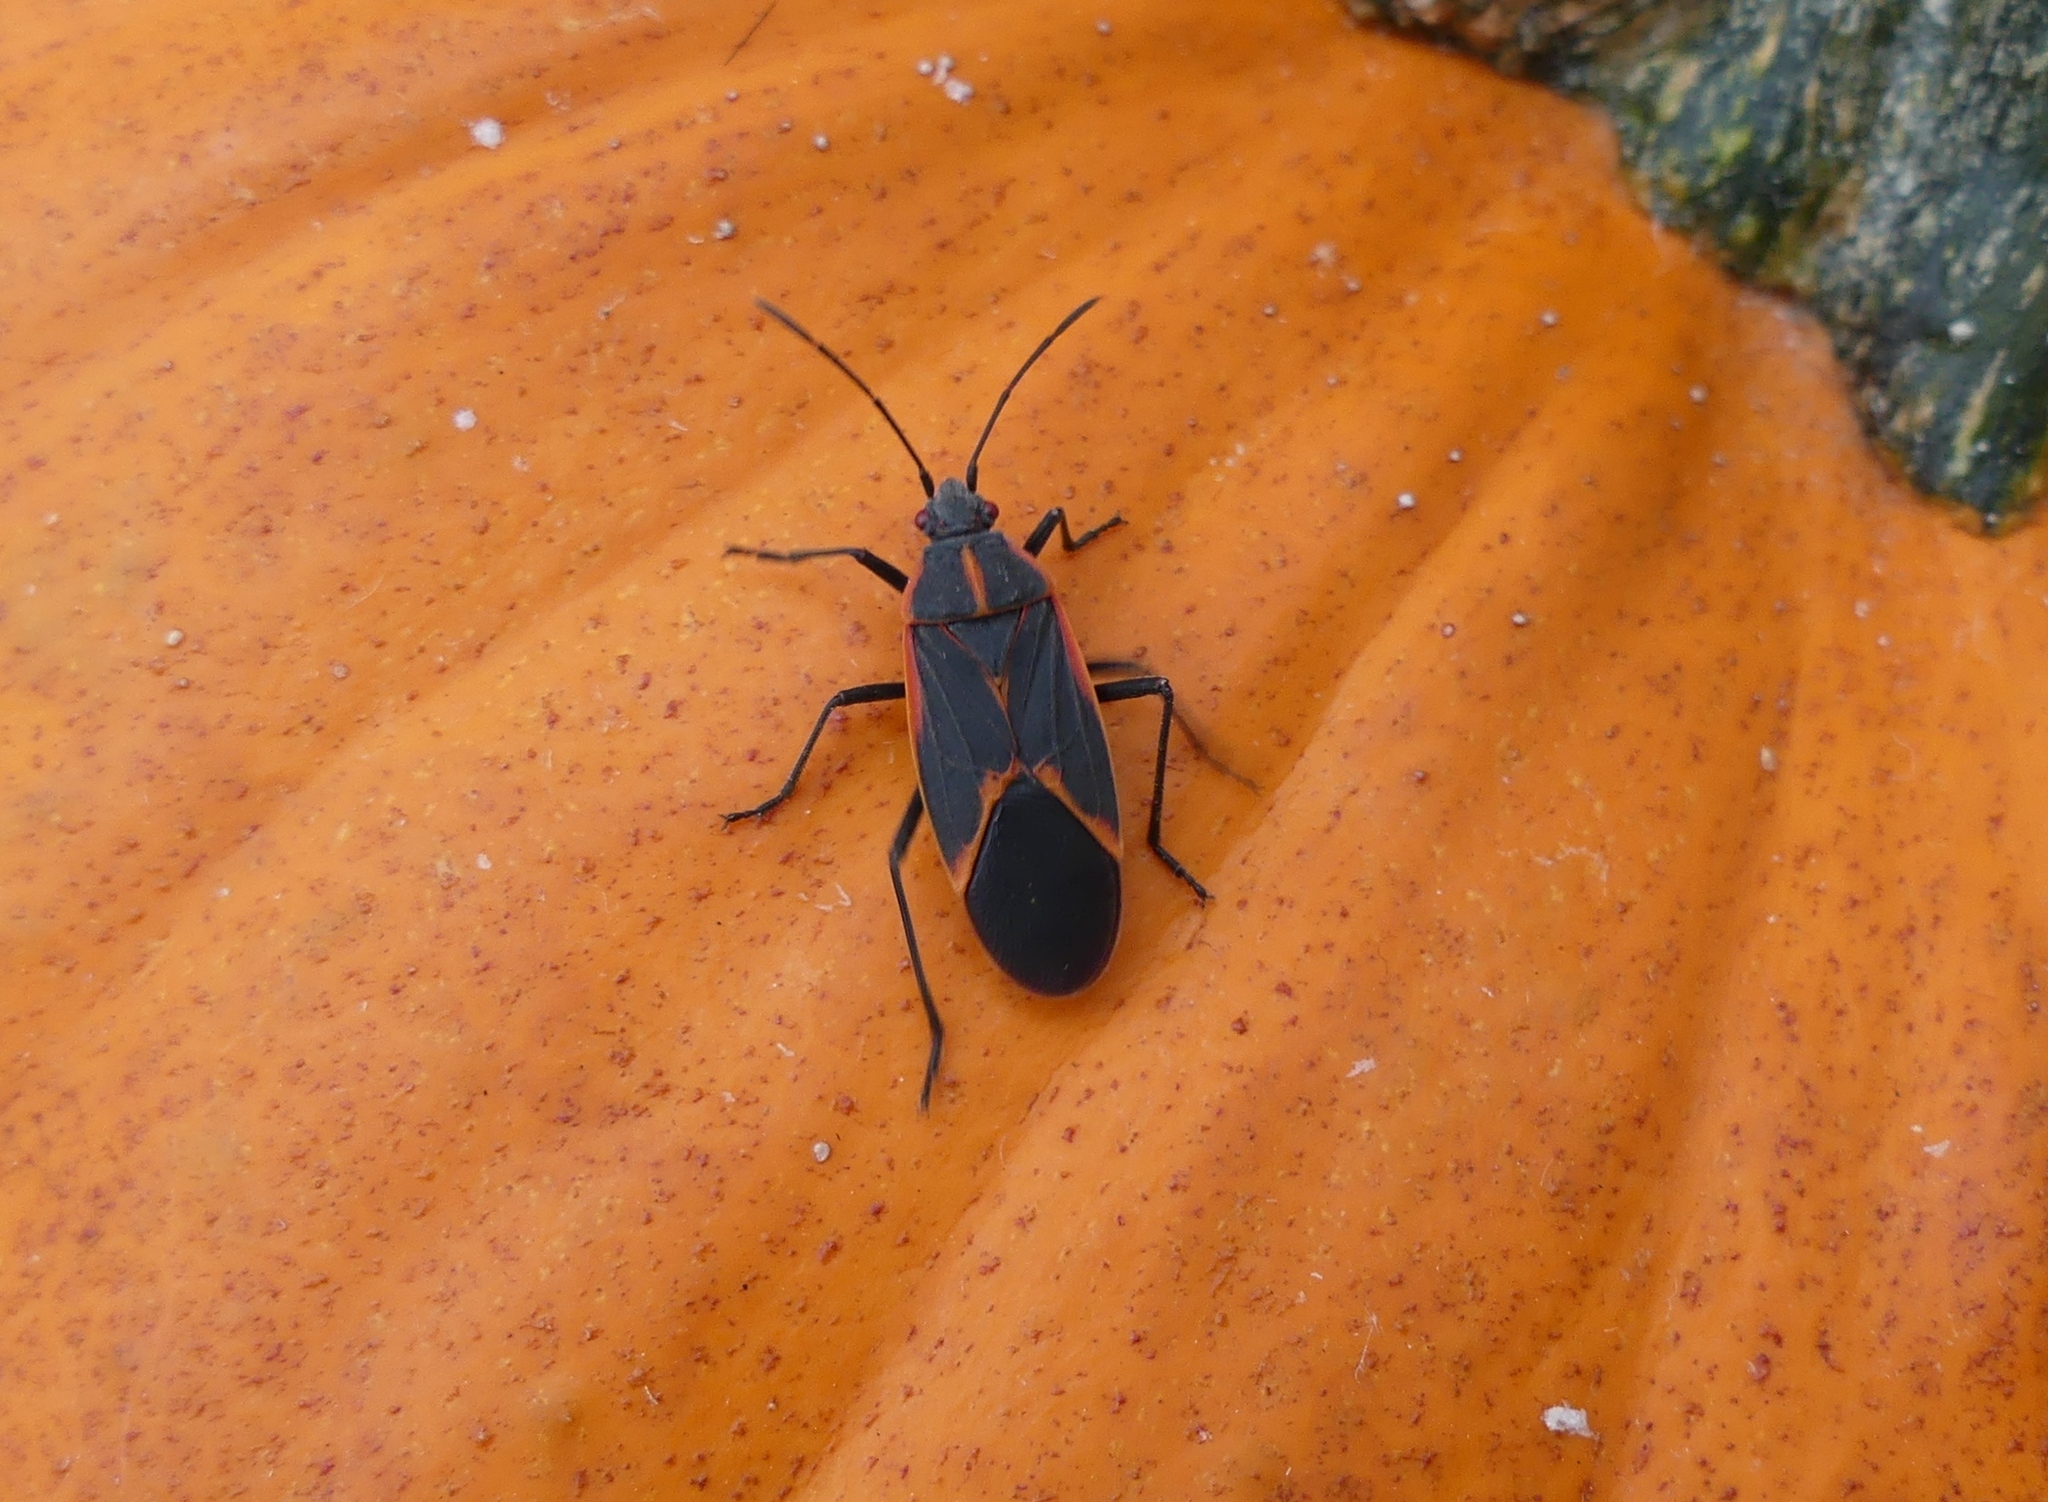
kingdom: Animalia
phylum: Arthropoda
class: Insecta
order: Hemiptera
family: Rhopalidae
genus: Boisea
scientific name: Boisea trivittata
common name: Boxelder bug
